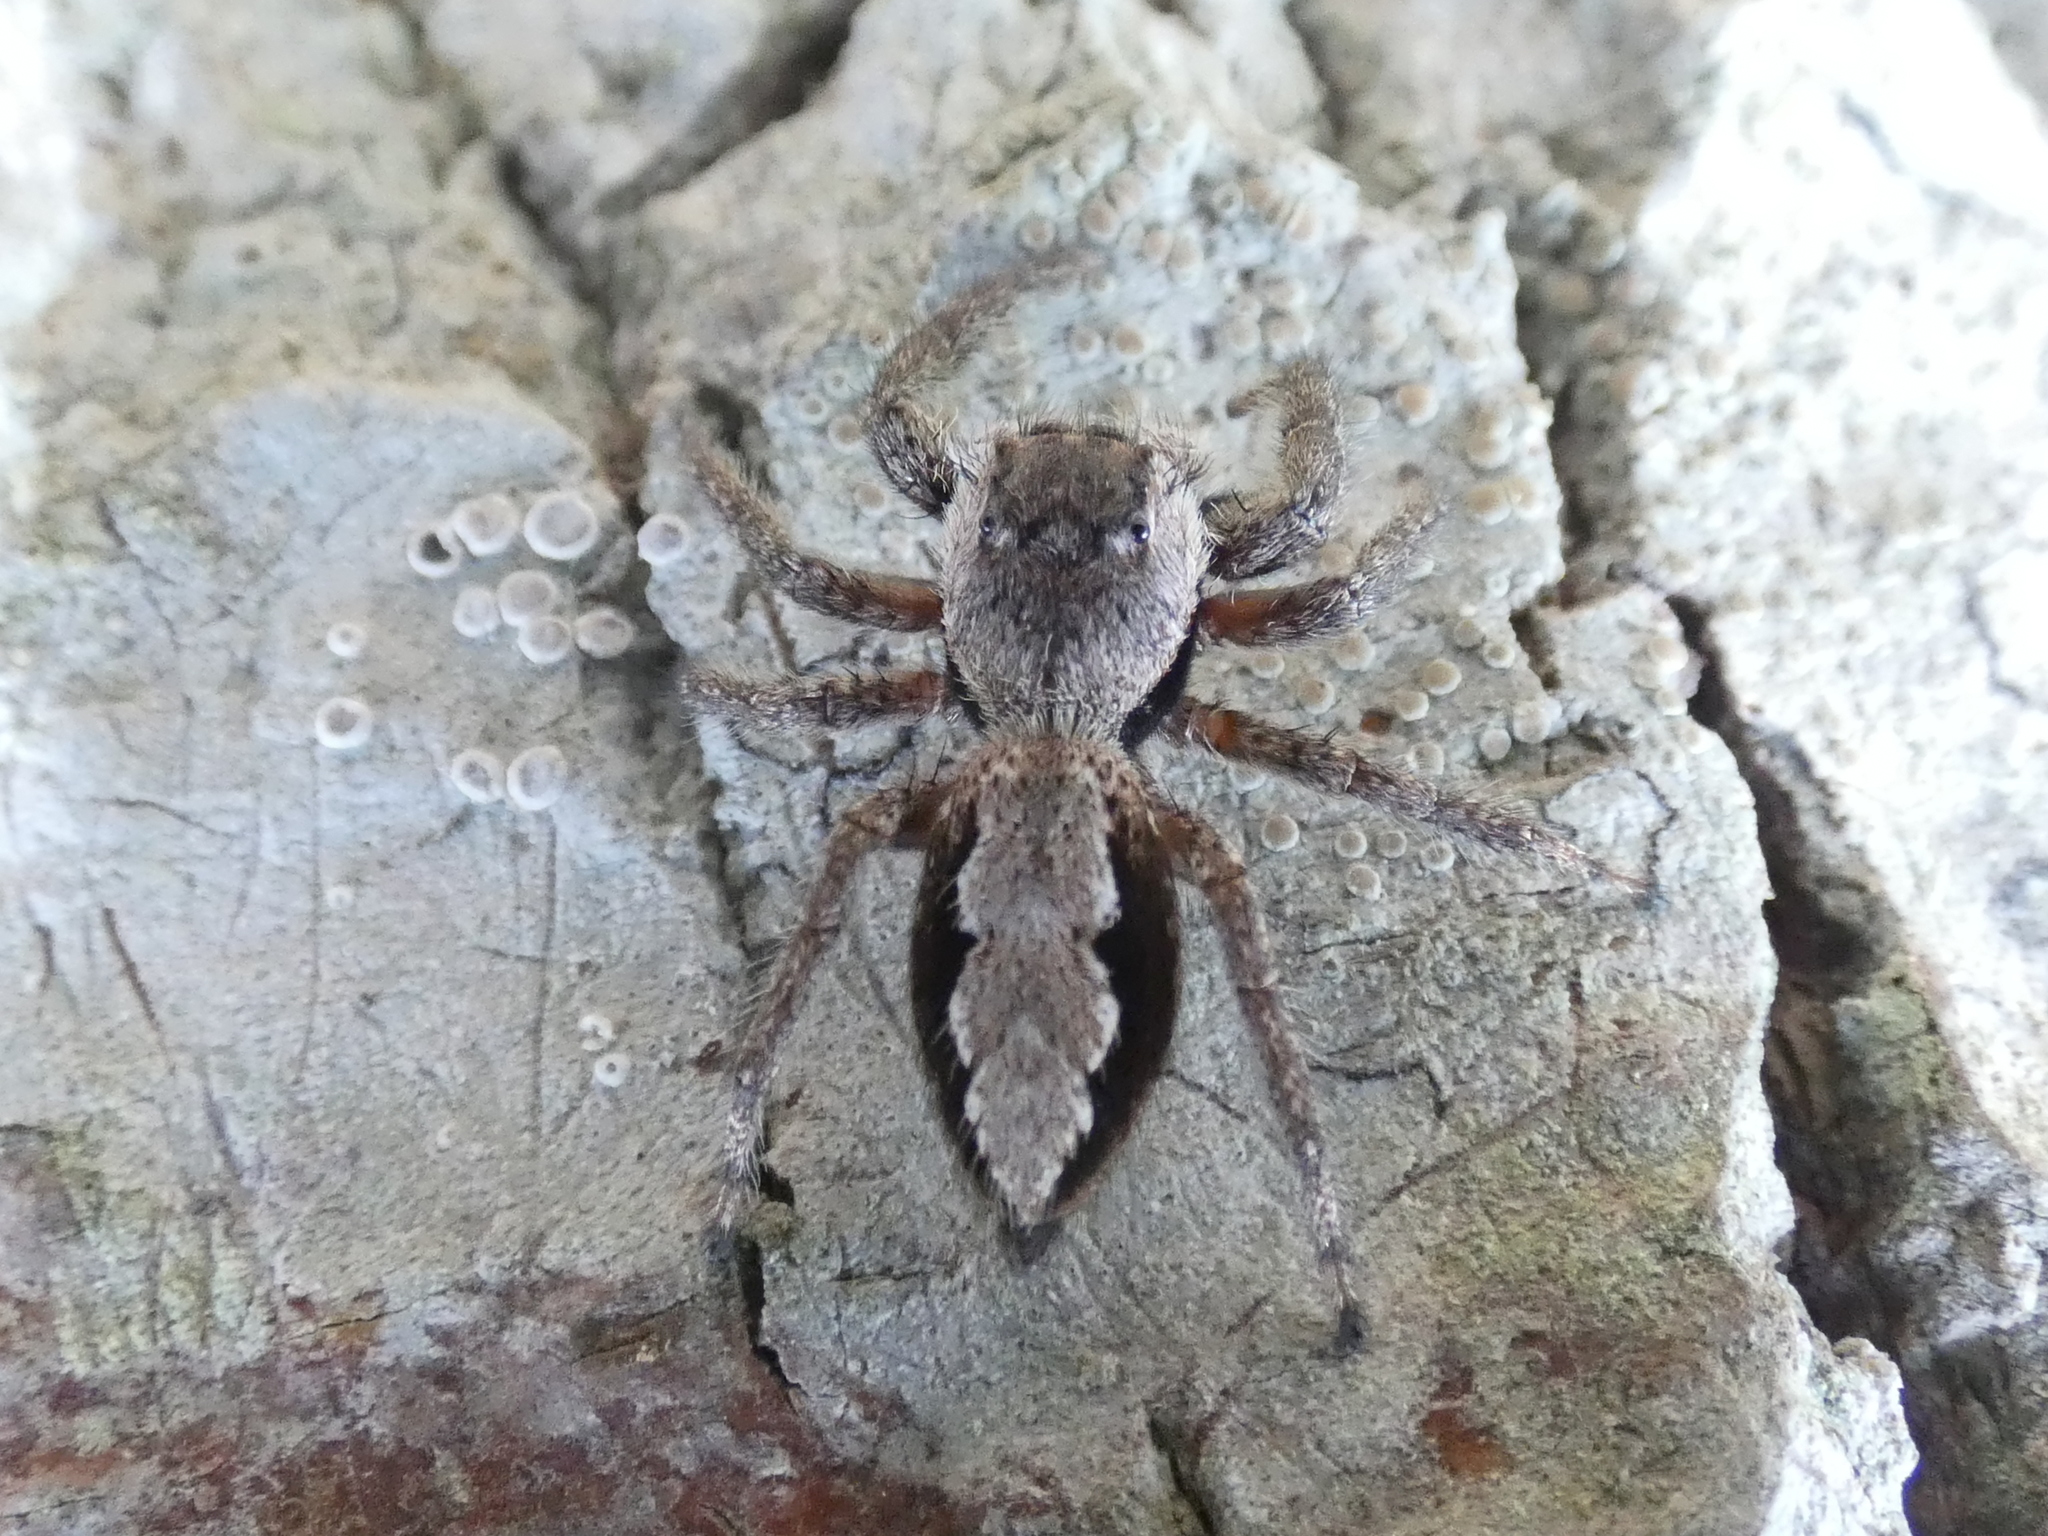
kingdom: Animalia
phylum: Arthropoda
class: Arachnida
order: Araneae
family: Salticidae
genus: Platycryptus
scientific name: Platycryptus undatus
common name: Tan jumping spider
